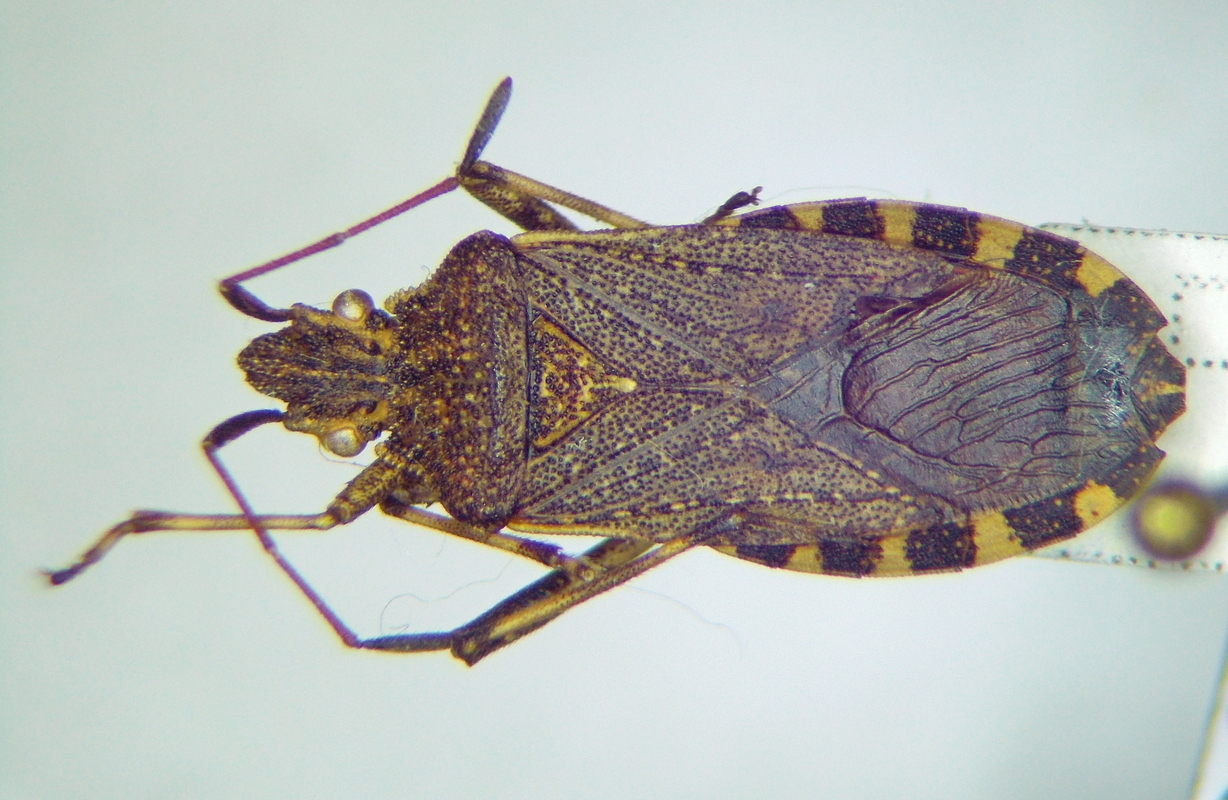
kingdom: Animalia
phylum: Arthropoda
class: Insecta
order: Hemiptera
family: Coreidae
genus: Ceraleptus
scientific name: Ceraleptus gracilicornis
